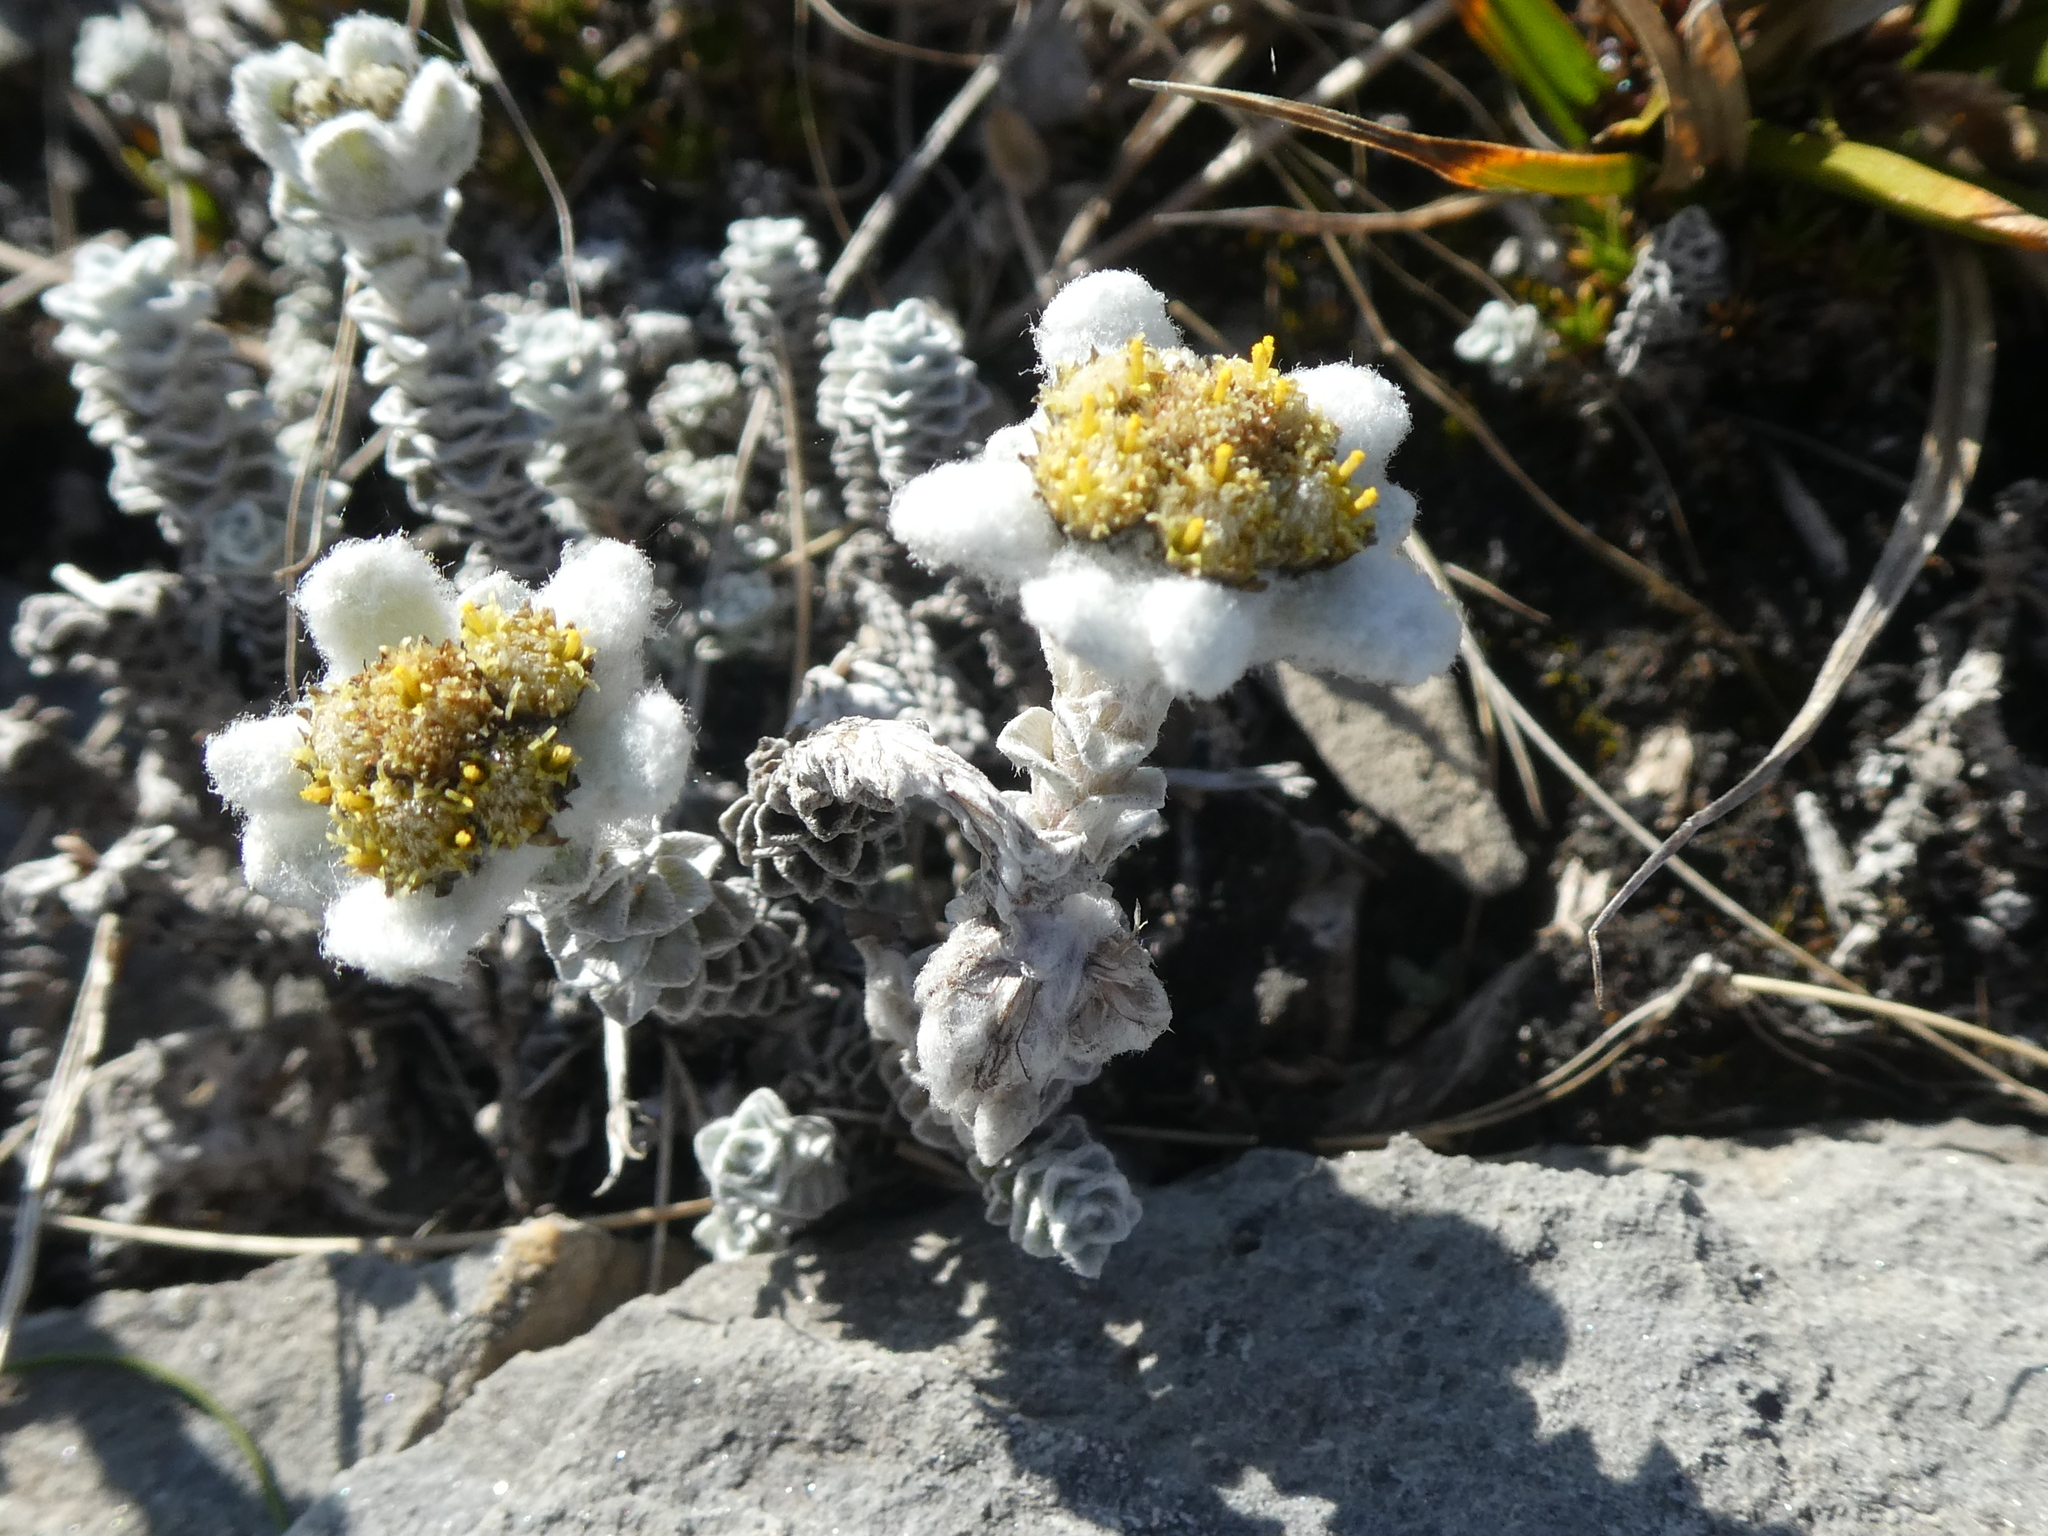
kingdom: Plantae
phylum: Tracheophyta
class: Magnoliopsida
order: Asterales
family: Asteraceae
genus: Leucogenes
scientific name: Leucogenes grandiceps
